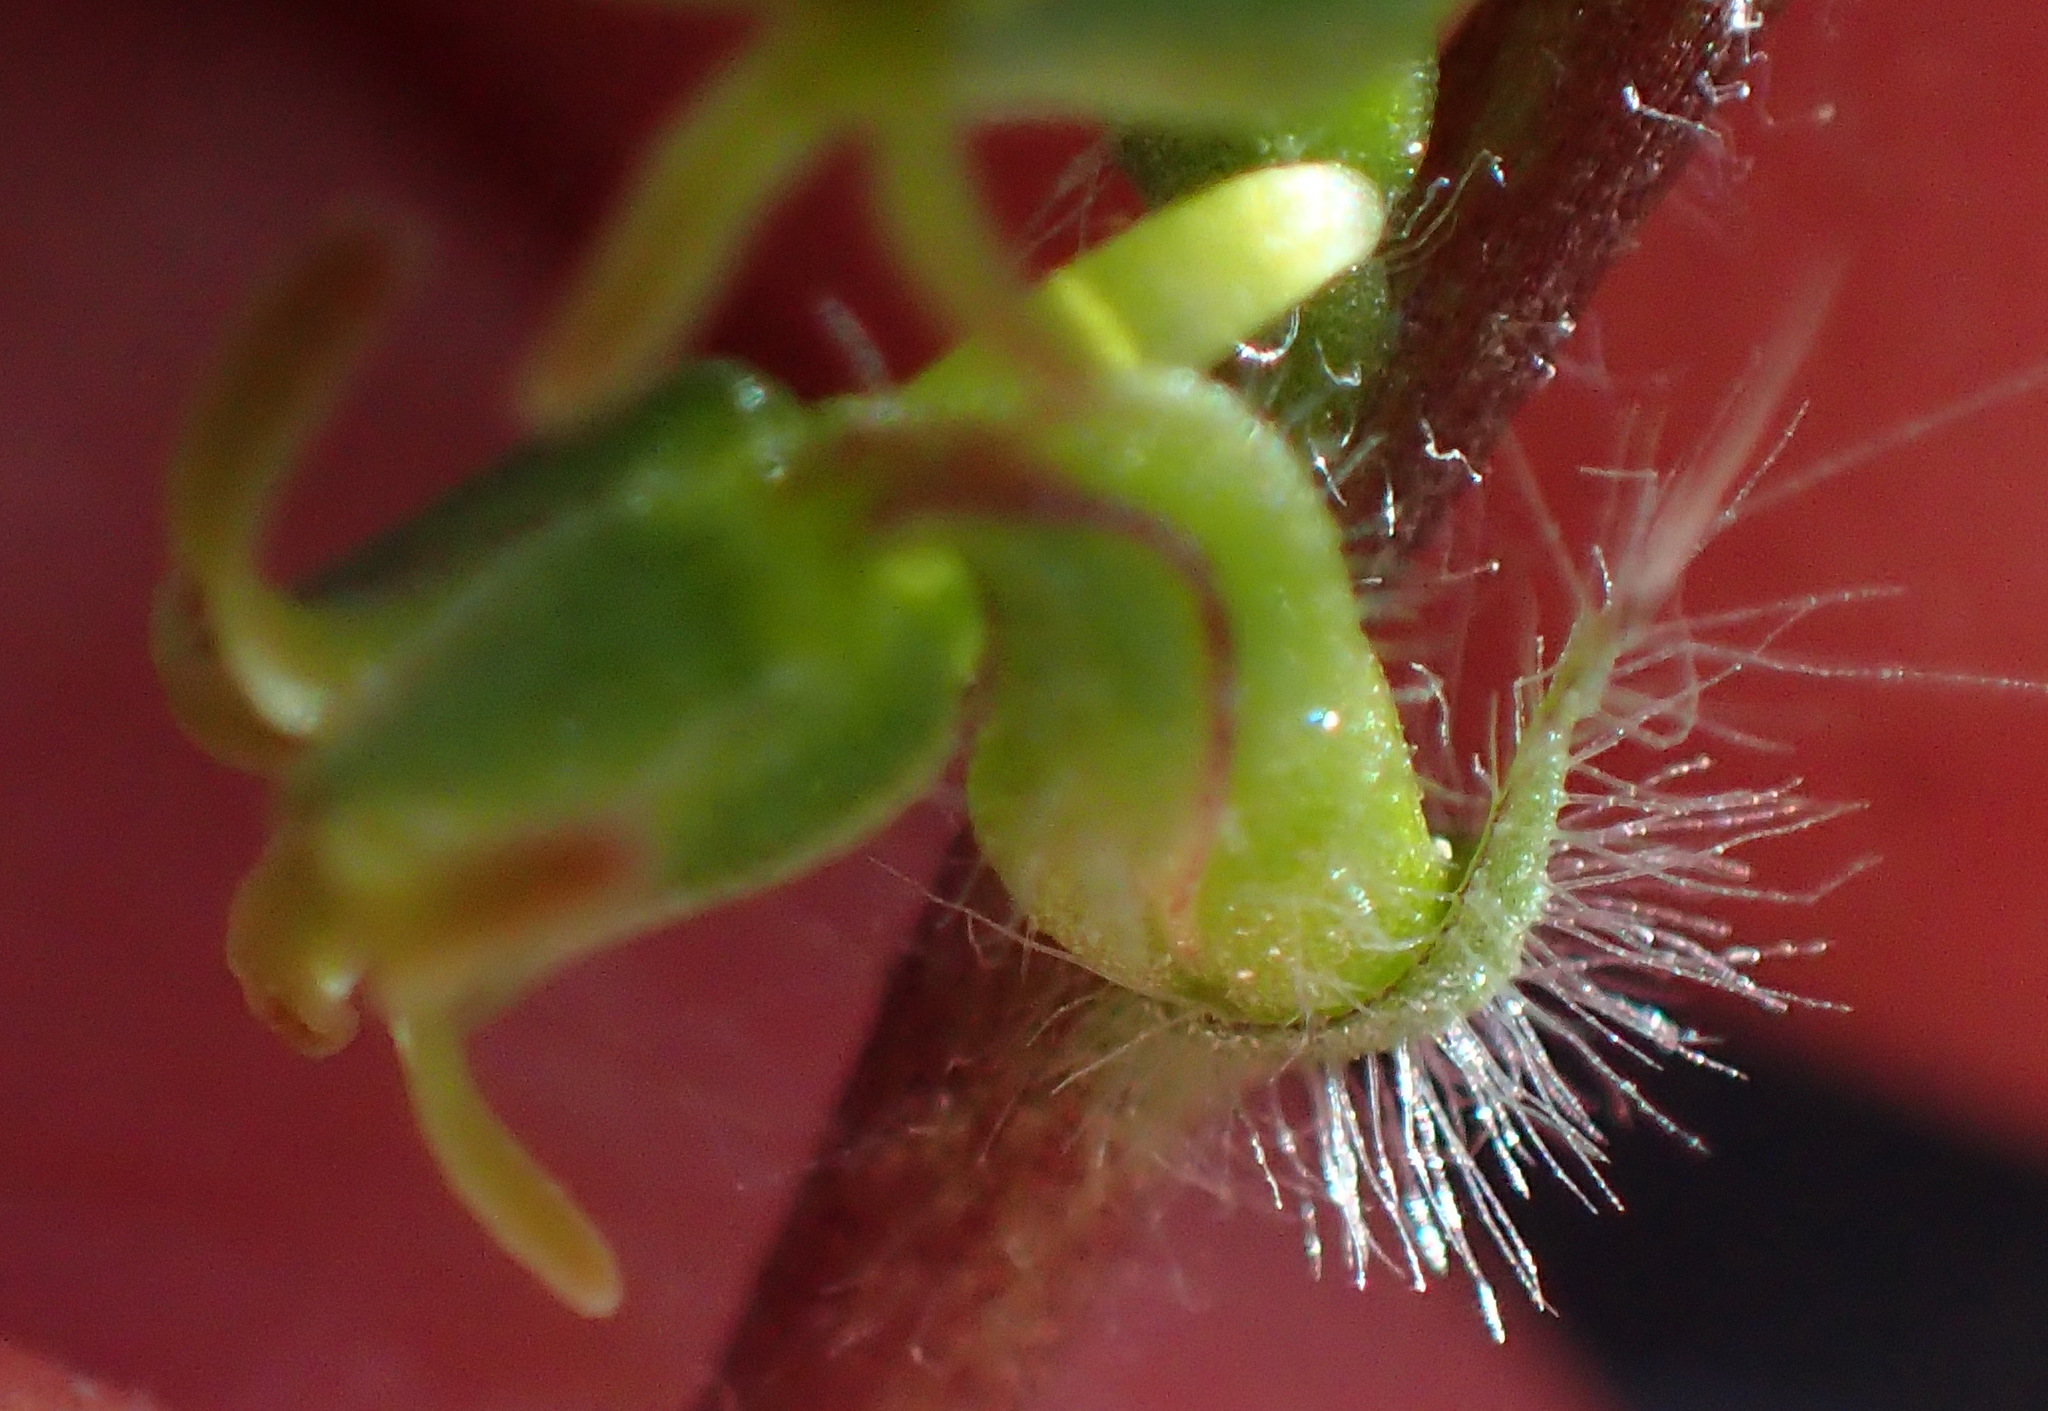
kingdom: Plantae
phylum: Tracheophyta
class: Liliopsida
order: Asparagales
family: Orchidaceae
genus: Holothrix
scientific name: Holothrix villosa
